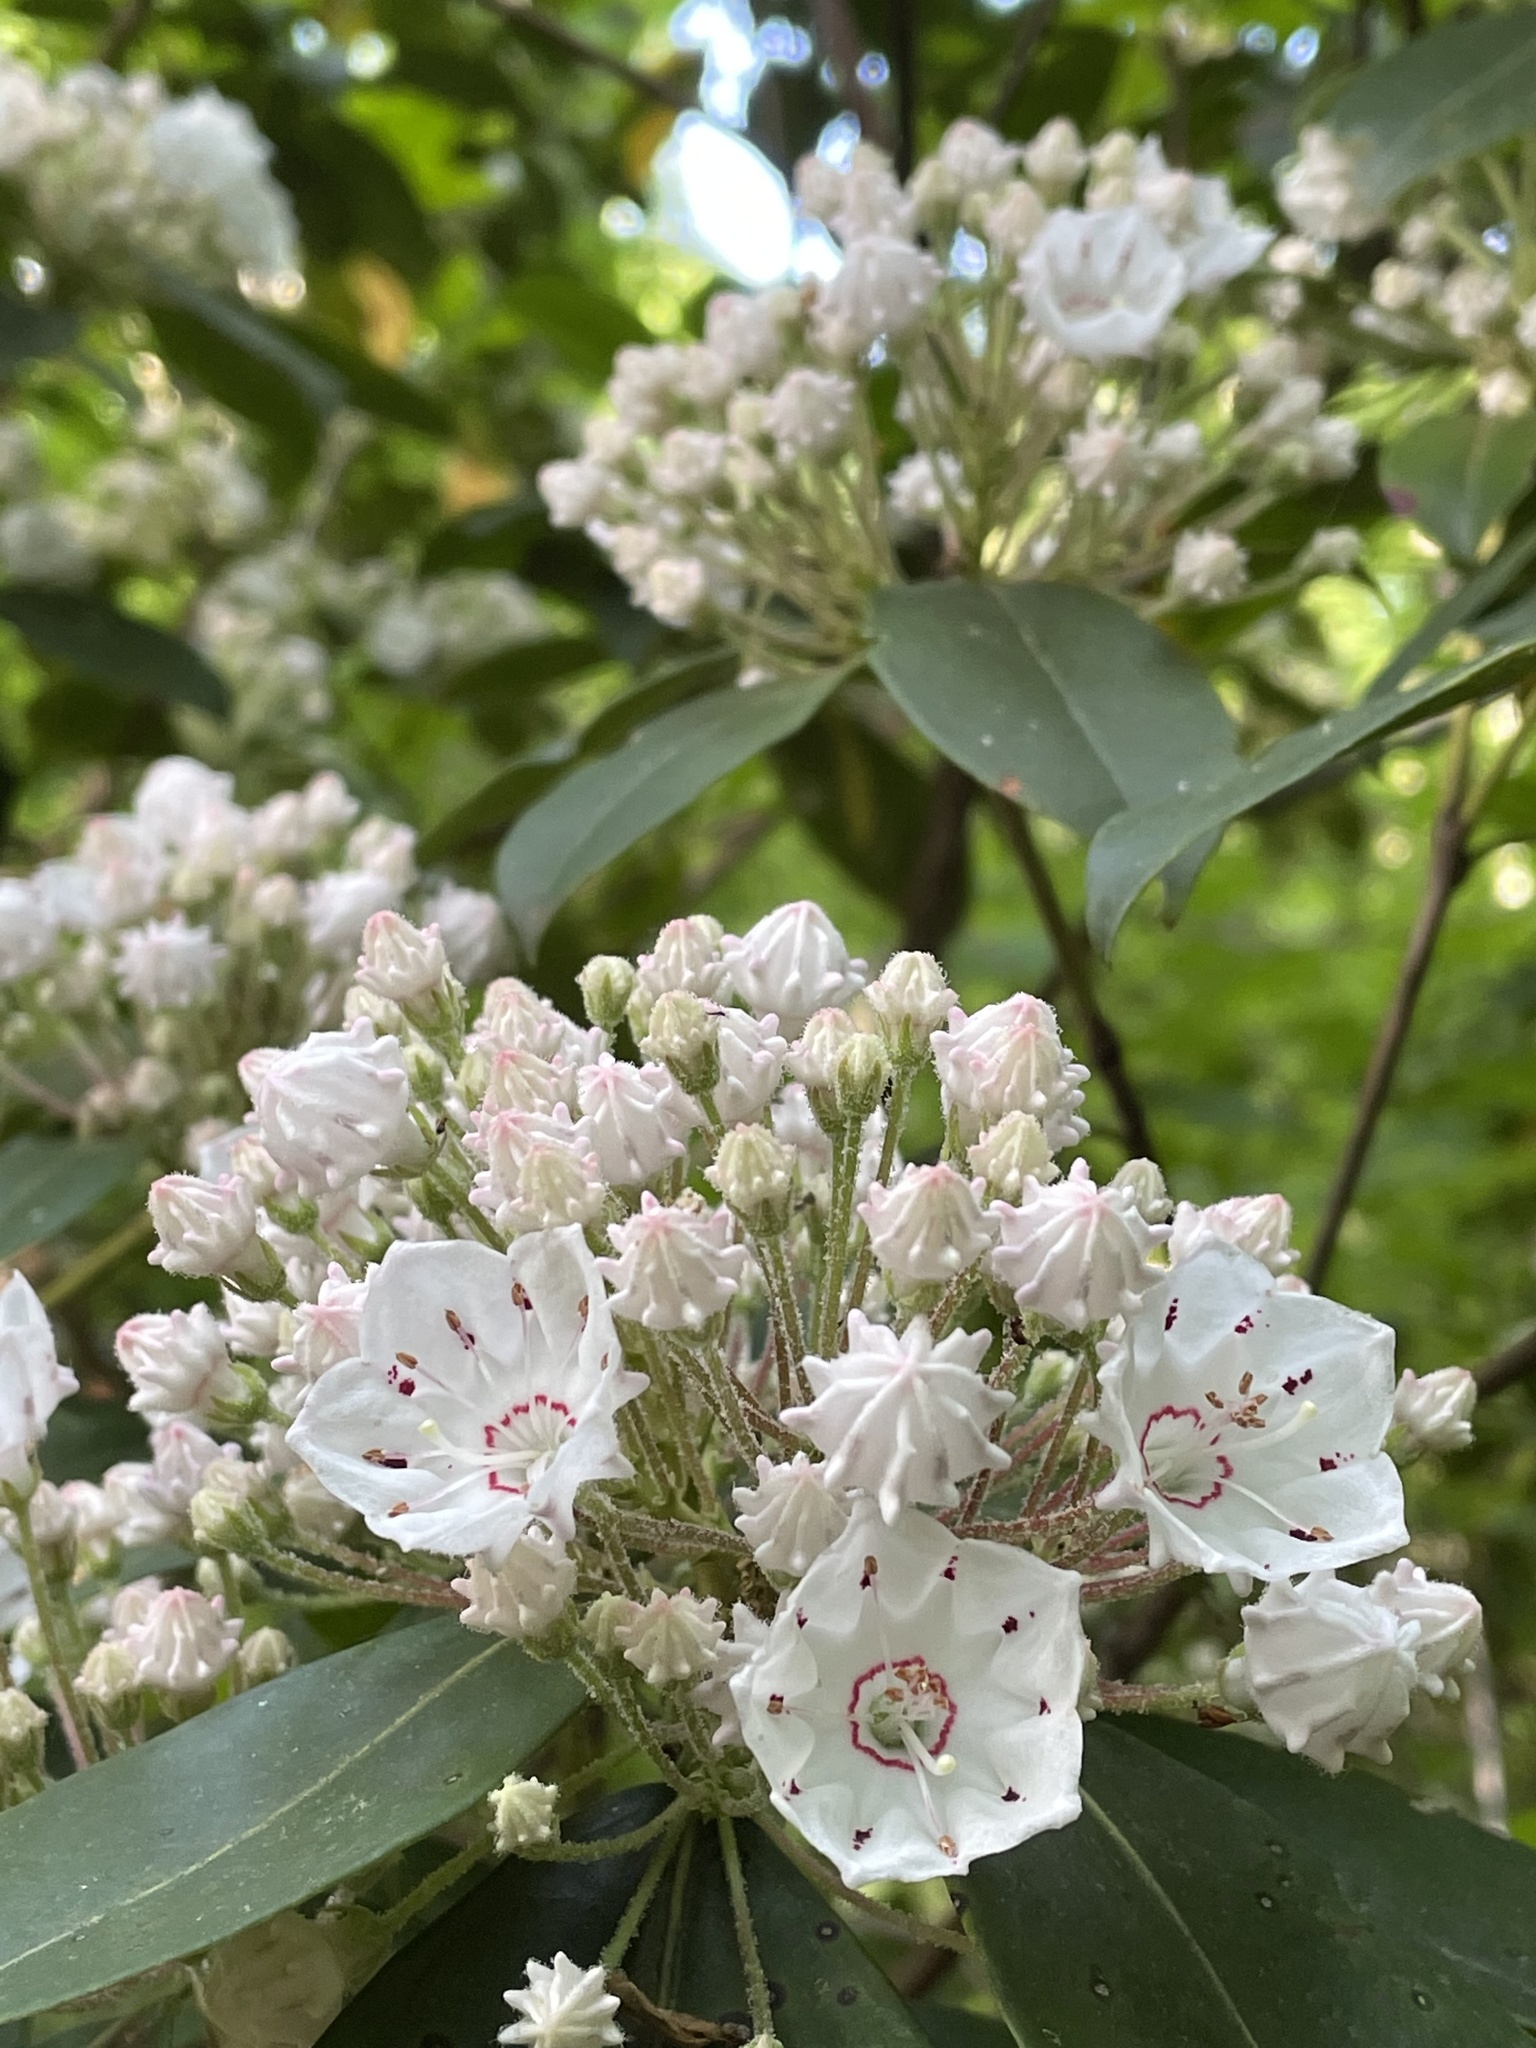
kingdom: Plantae
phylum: Tracheophyta
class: Magnoliopsida
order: Ericales
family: Ericaceae
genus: Kalmia
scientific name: Kalmia latifolia
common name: Mountain-laurel
